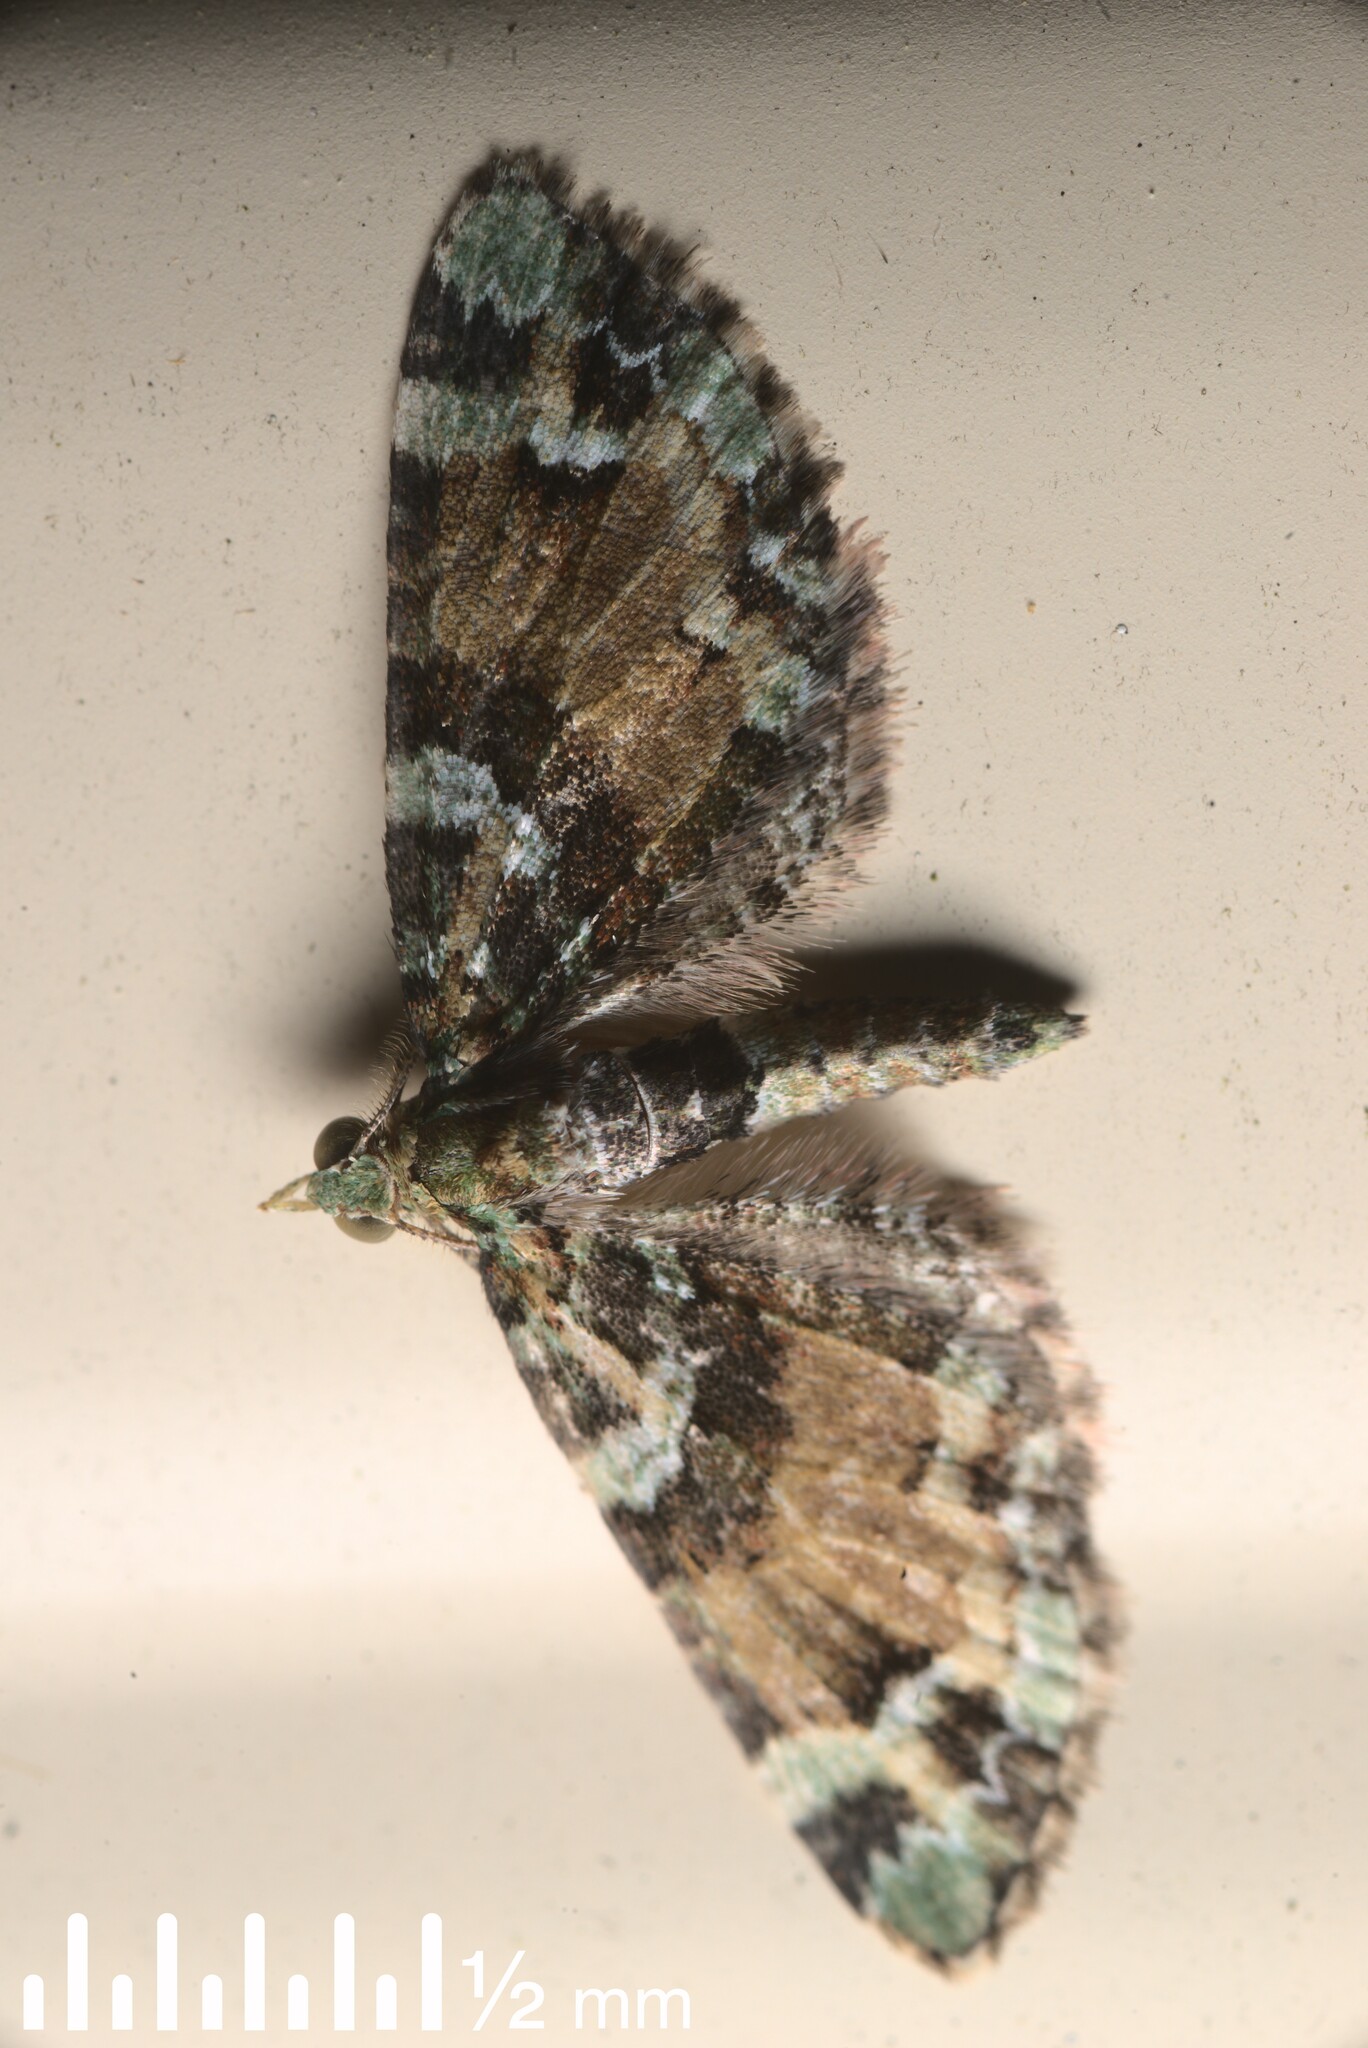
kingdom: Animalia
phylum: Arthropoda
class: Insecta
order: Lepidoptera
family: Geometridae
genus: Pasiphila
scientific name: Pasiphila bilineolata
